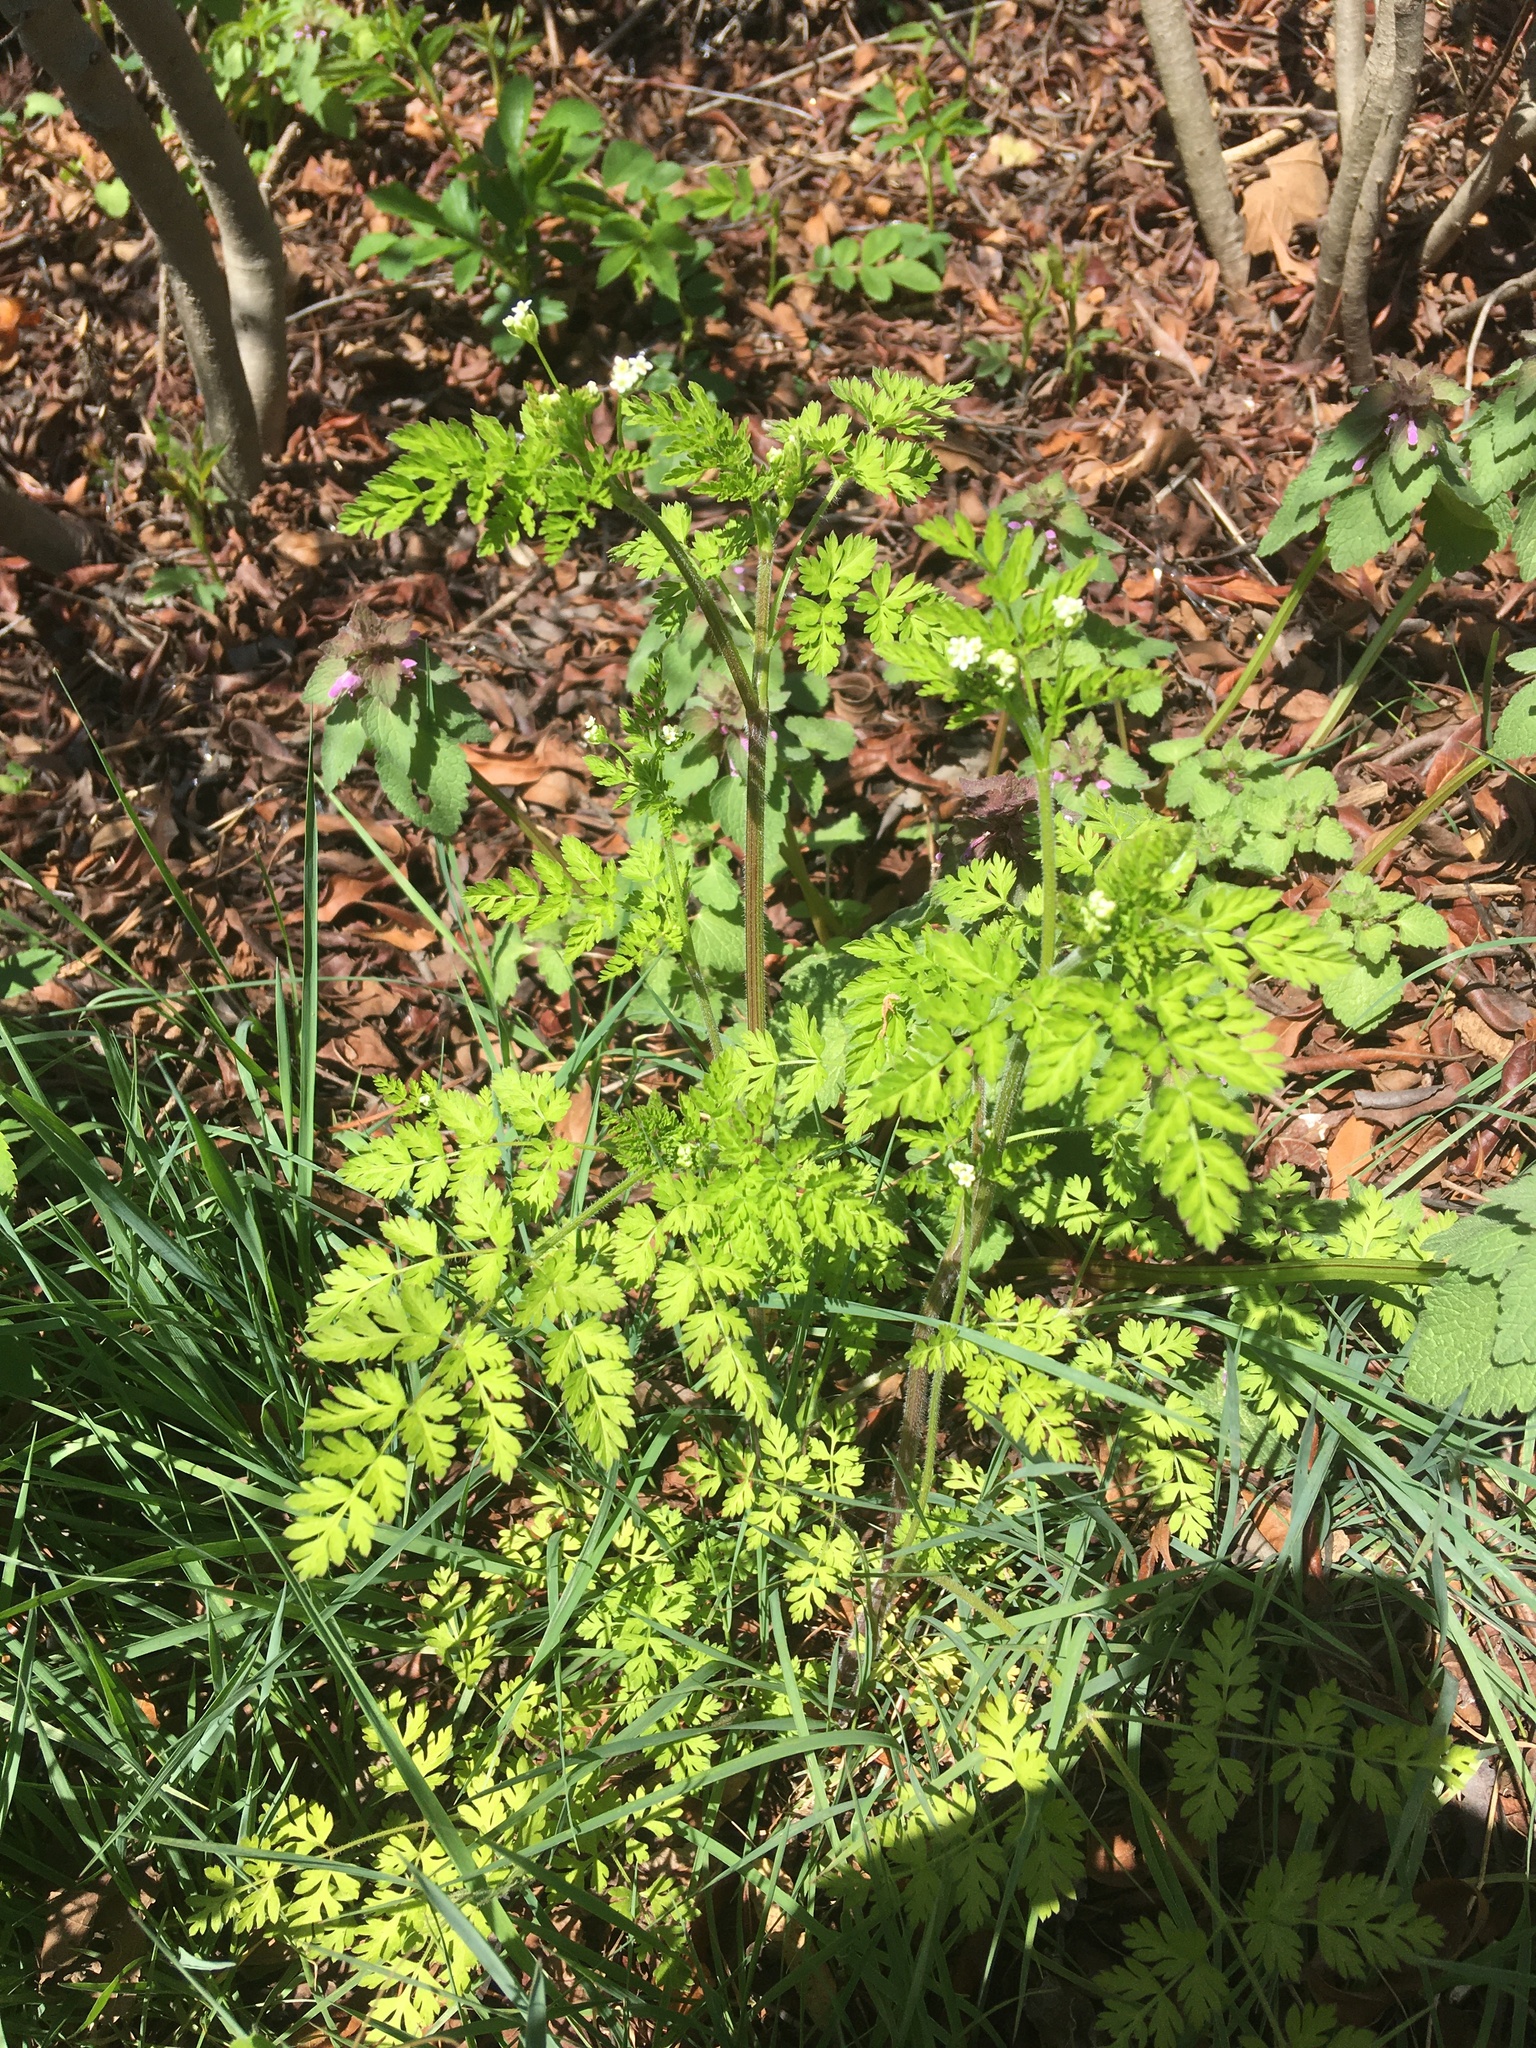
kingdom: Plantae
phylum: Tracheophyta
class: Magnoliopsida
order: Apiales
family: Apiaceae
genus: Chaerophyllum
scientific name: Chaerophyllum tainturieri
